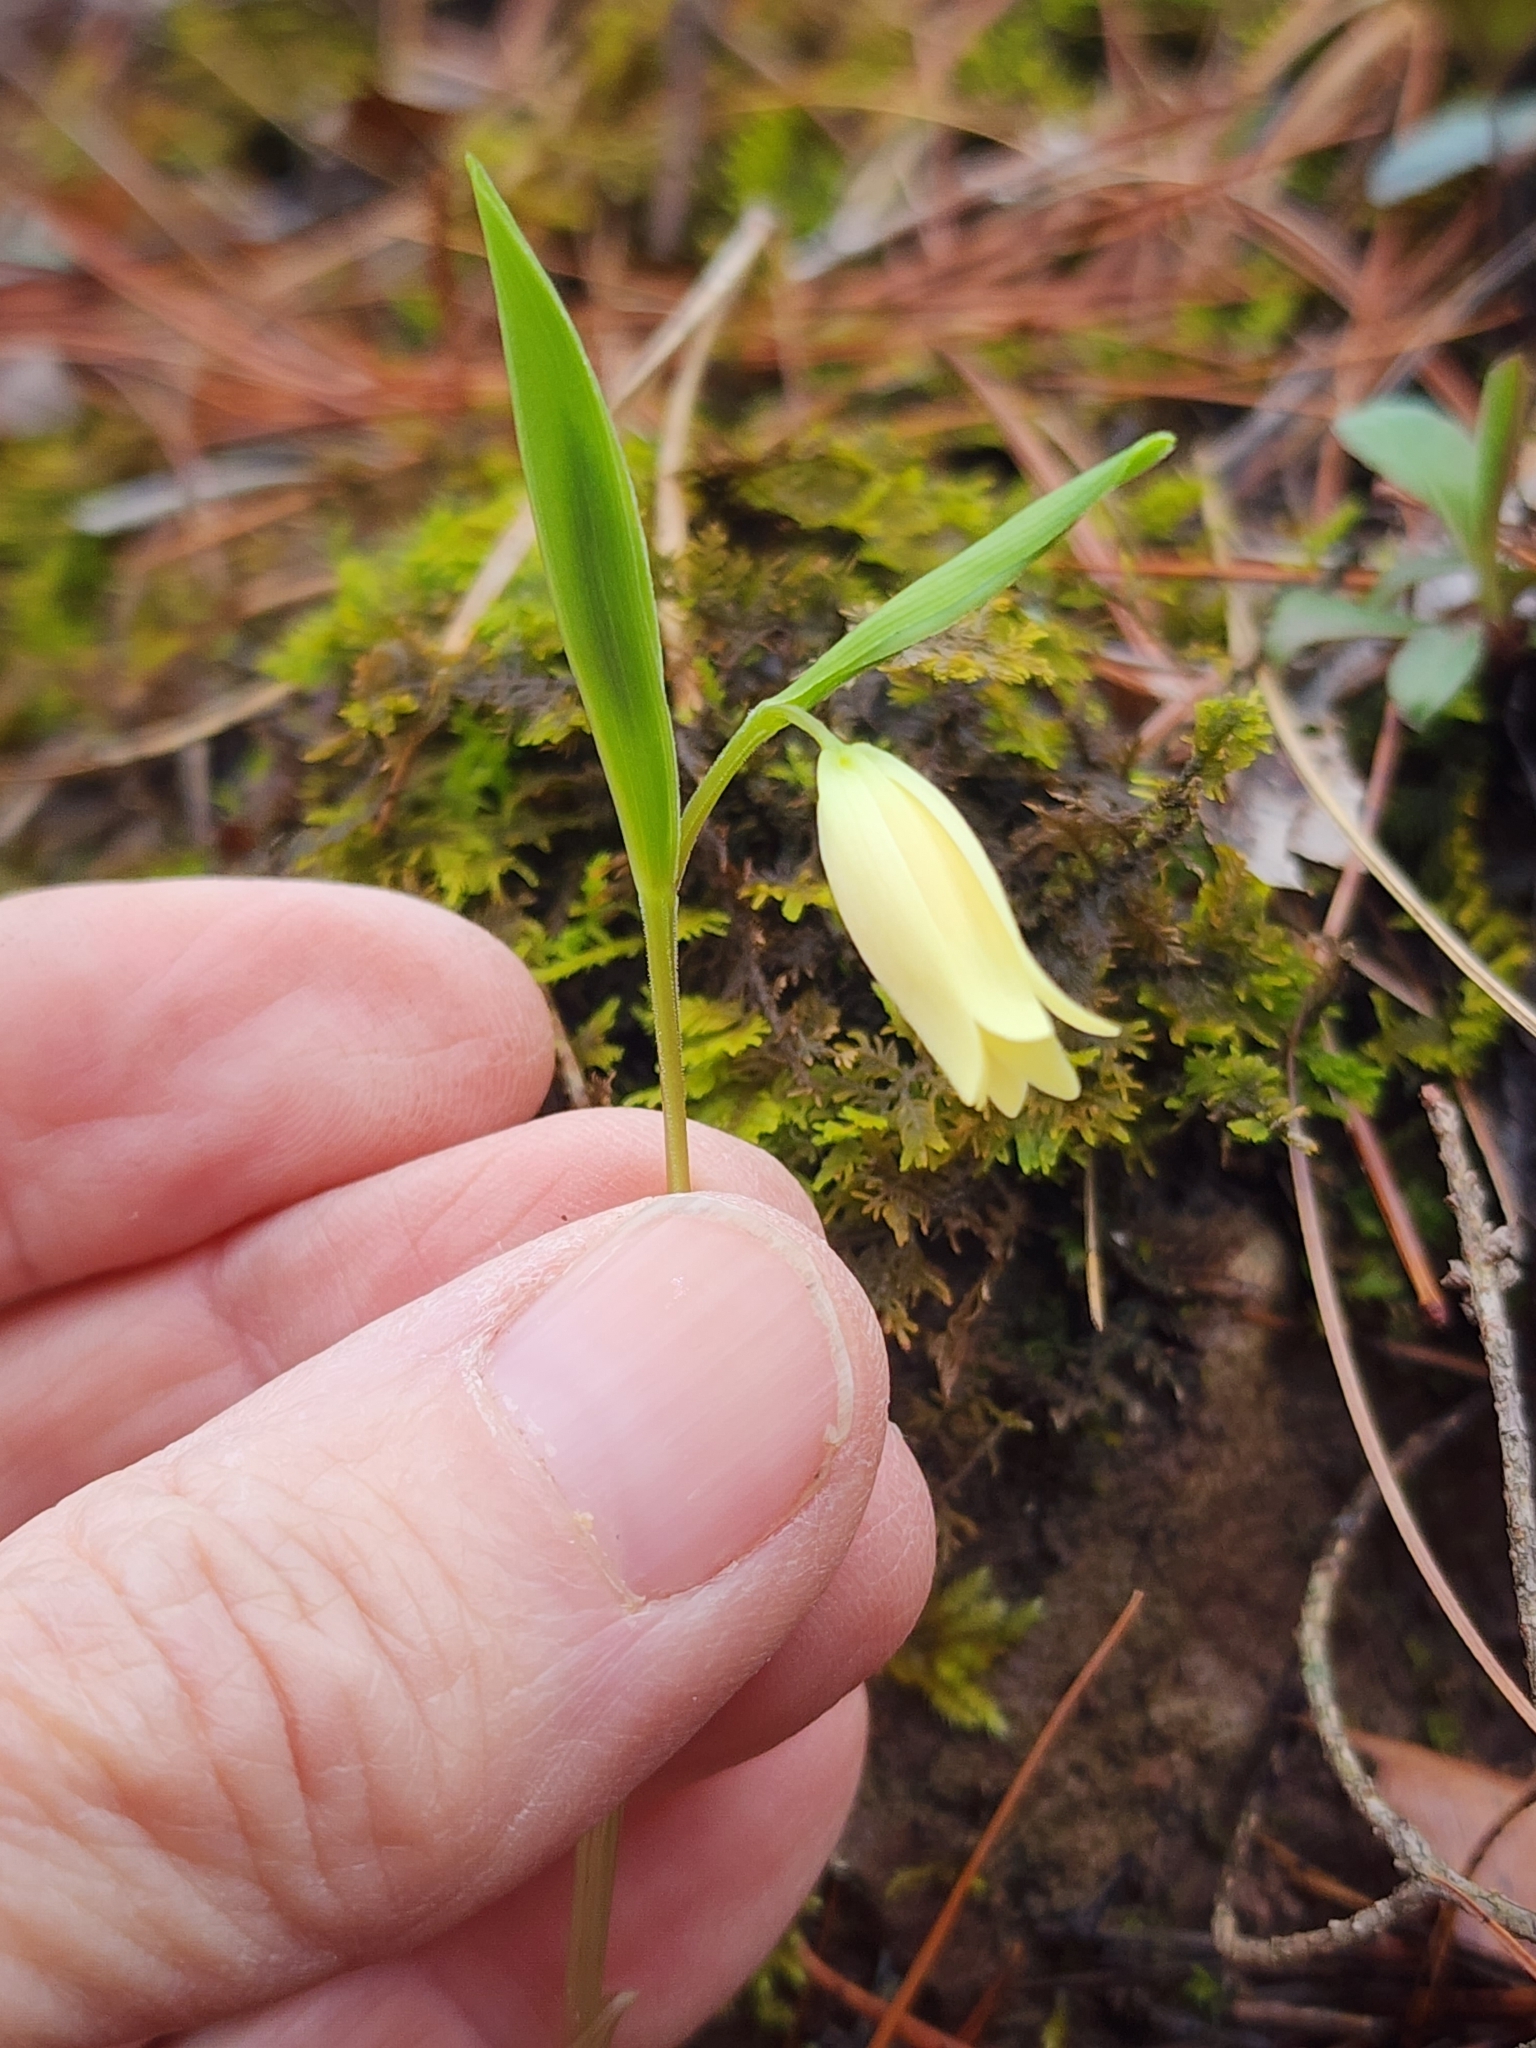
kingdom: Plantae
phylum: Tracheophyta
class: Liliopsida
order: Liliales
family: Colchicaceae
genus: Uvularia
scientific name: Uvularia puberula
